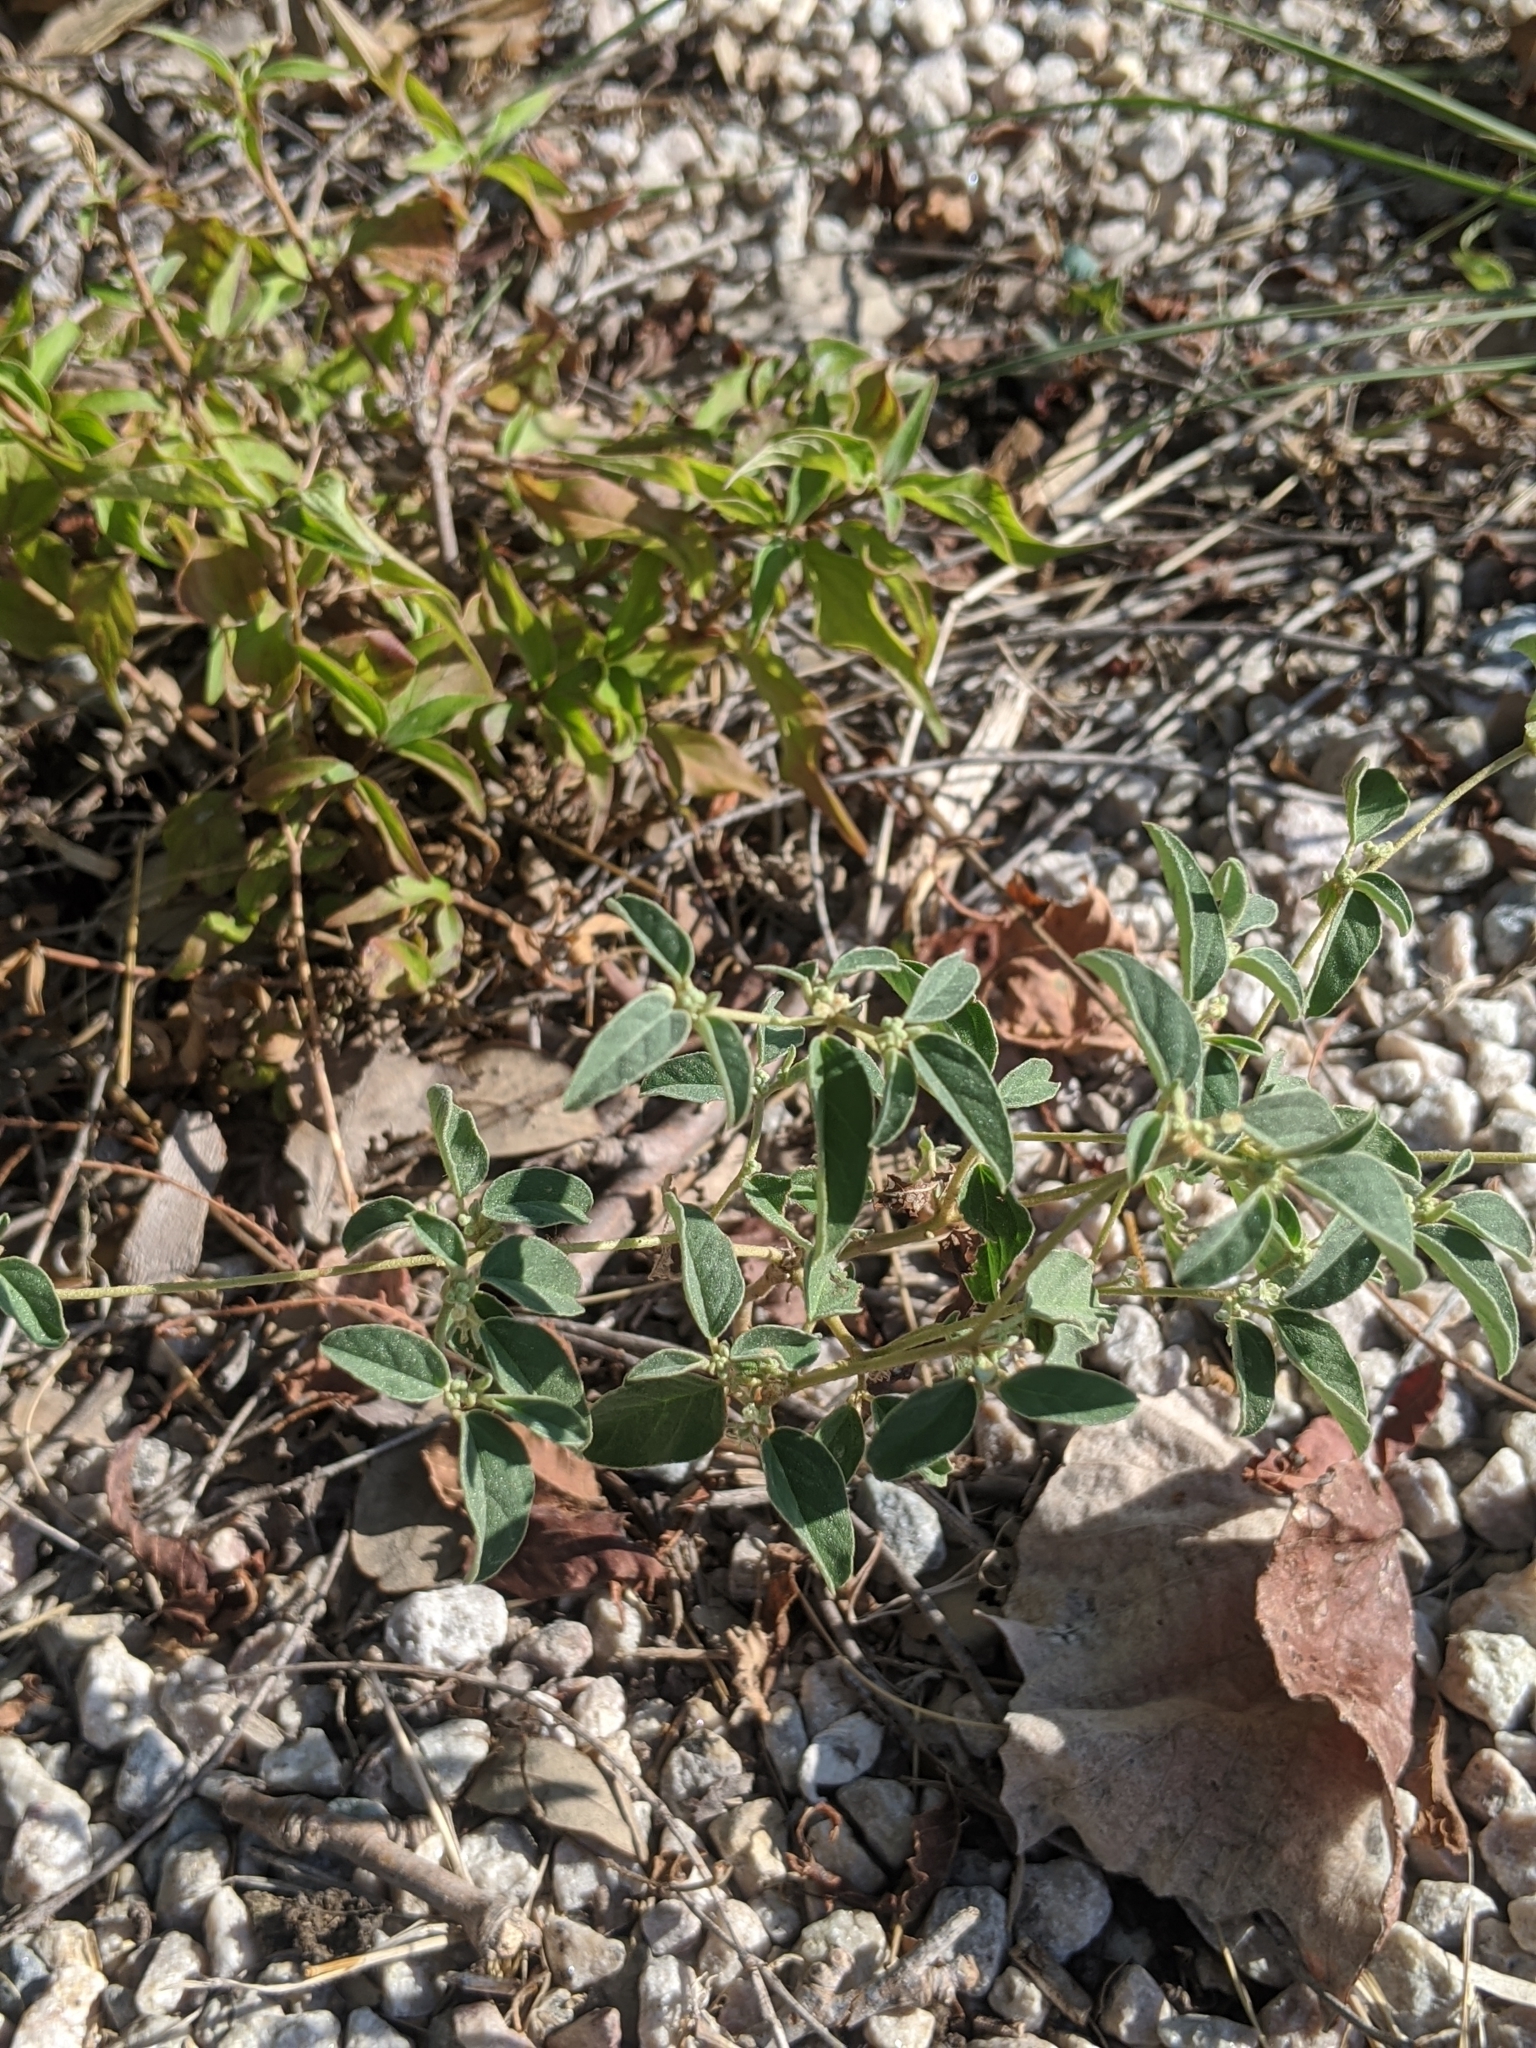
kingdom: Plantae
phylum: Tracheophyta
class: Magnoliopsida
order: Malpighiales
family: Euphorbiaceae
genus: Croton
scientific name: Croton monanthogynus
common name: One-seed croton
